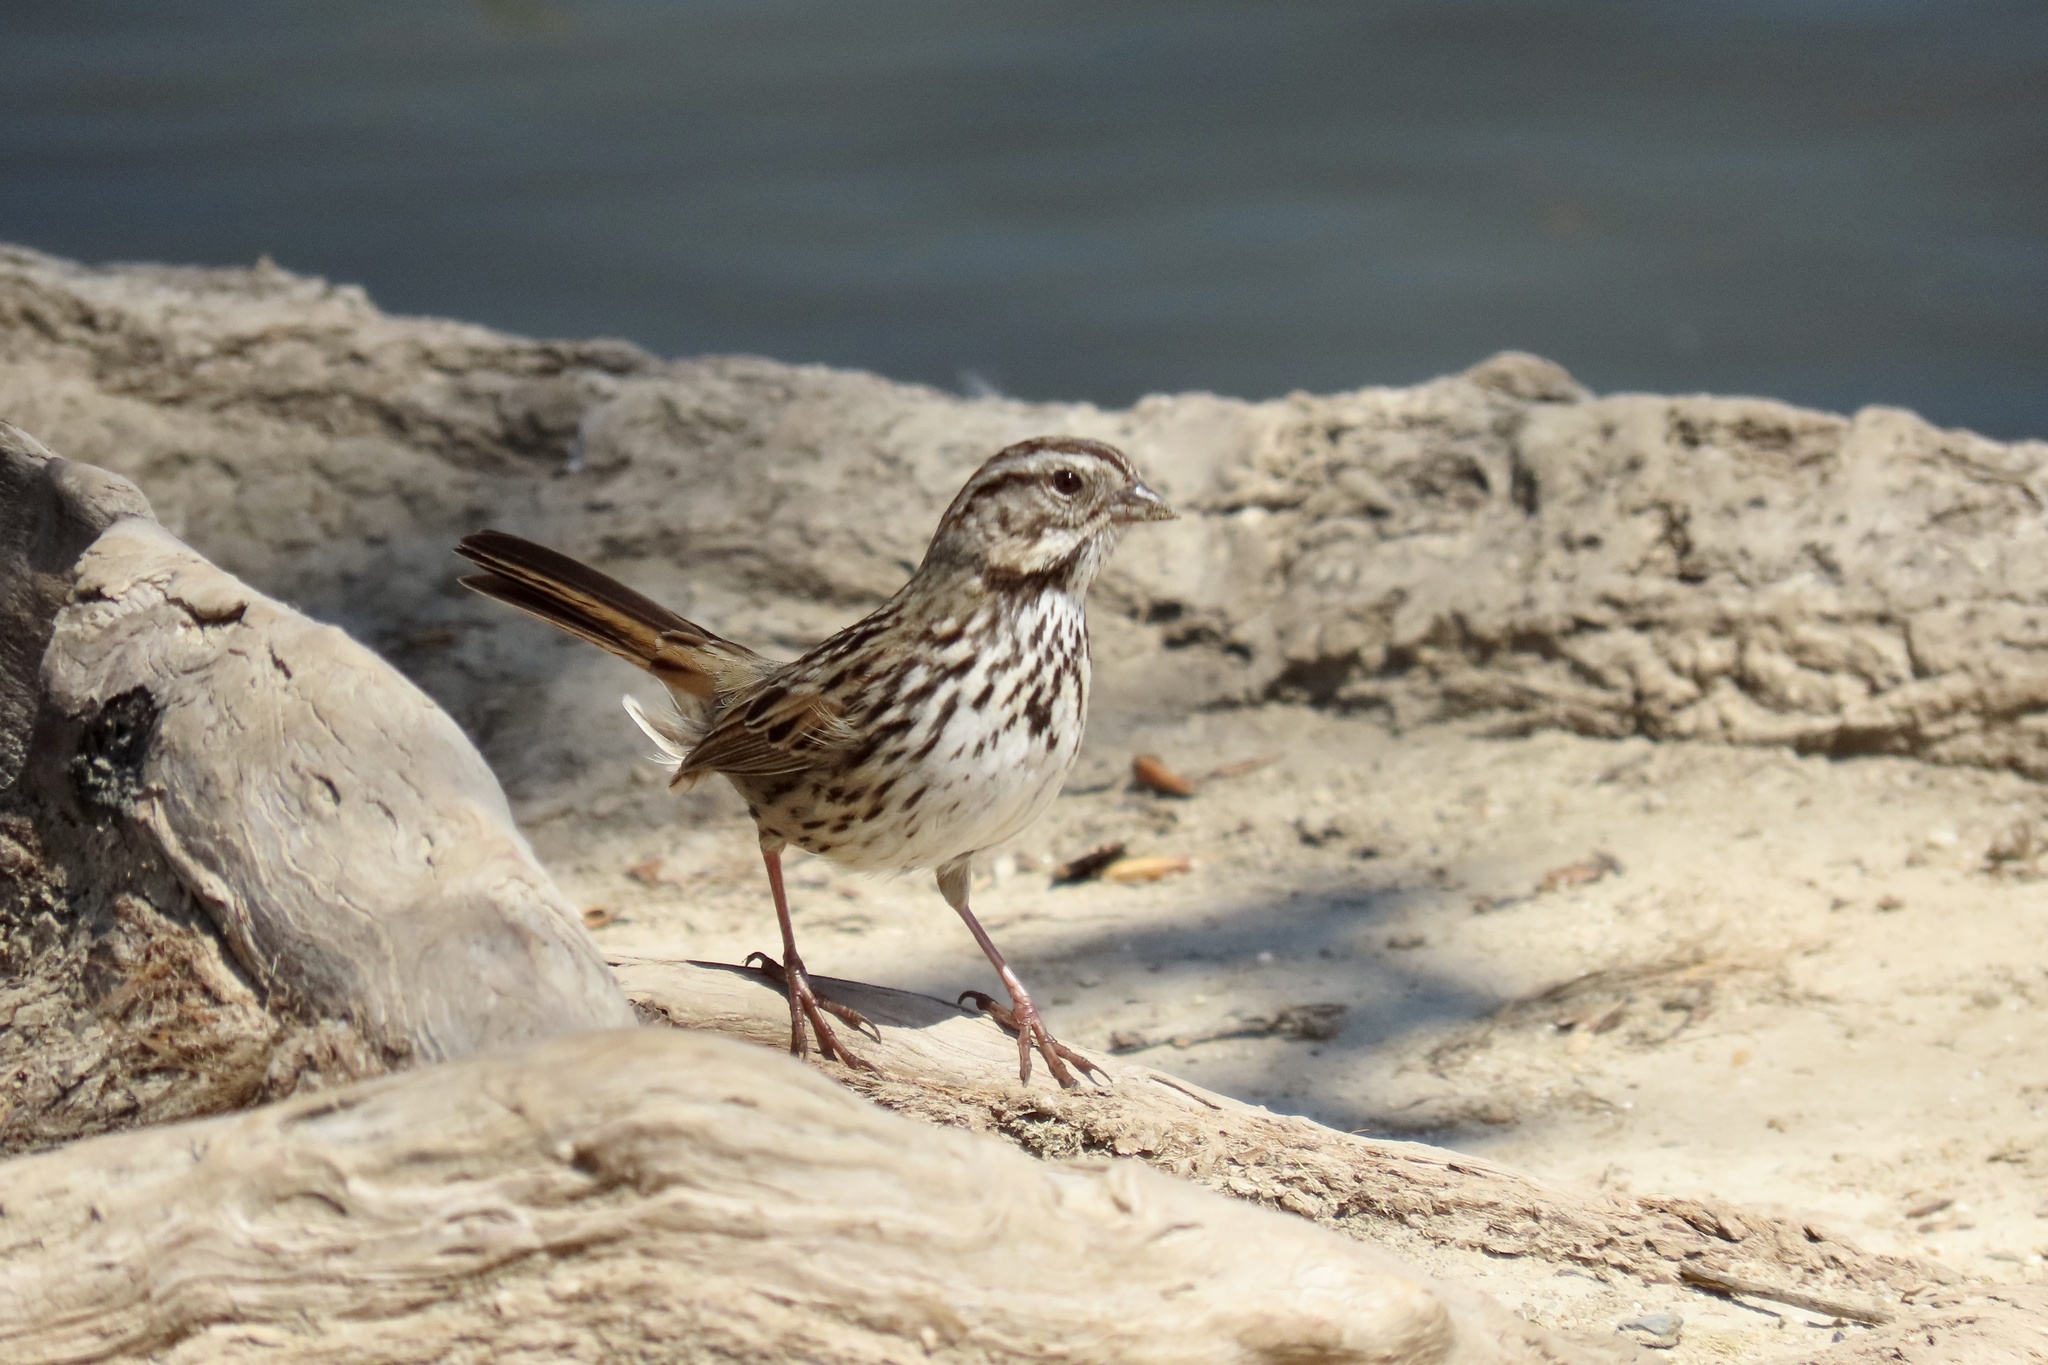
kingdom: Animalia
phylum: Chordata
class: Aves
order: Passeriformes
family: Passerellidae
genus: Melospiza
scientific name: Melospiza melodia
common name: Song sparrow
